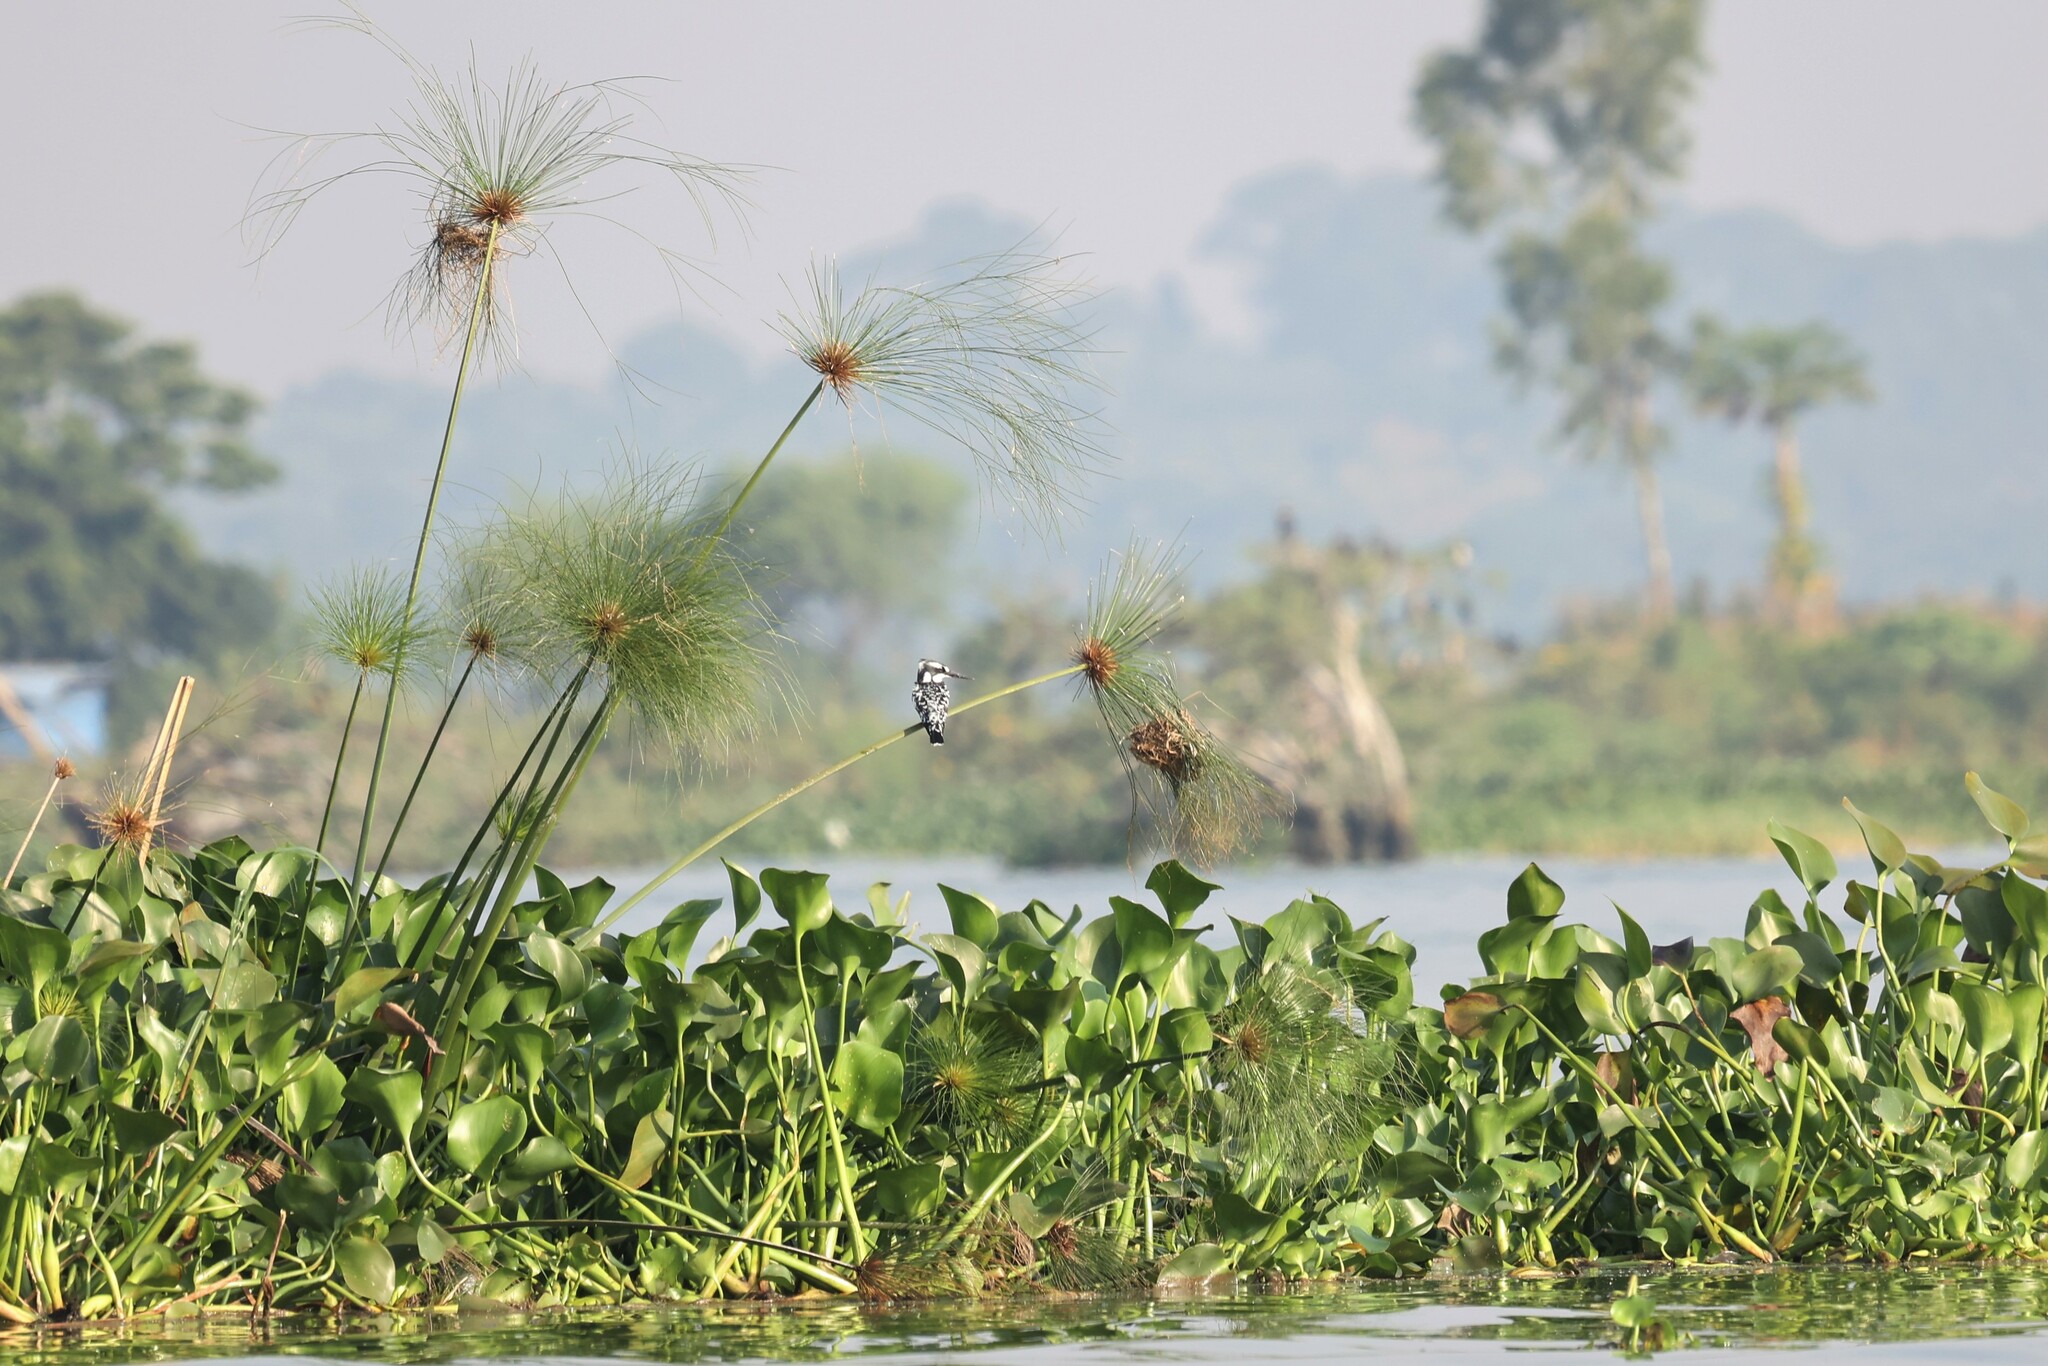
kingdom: Animalia
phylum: Chordata
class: Aves
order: Coraciiformes
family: Alcedinidae
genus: Ceryle
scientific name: Ceryle rudis
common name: Pied kingfisher
